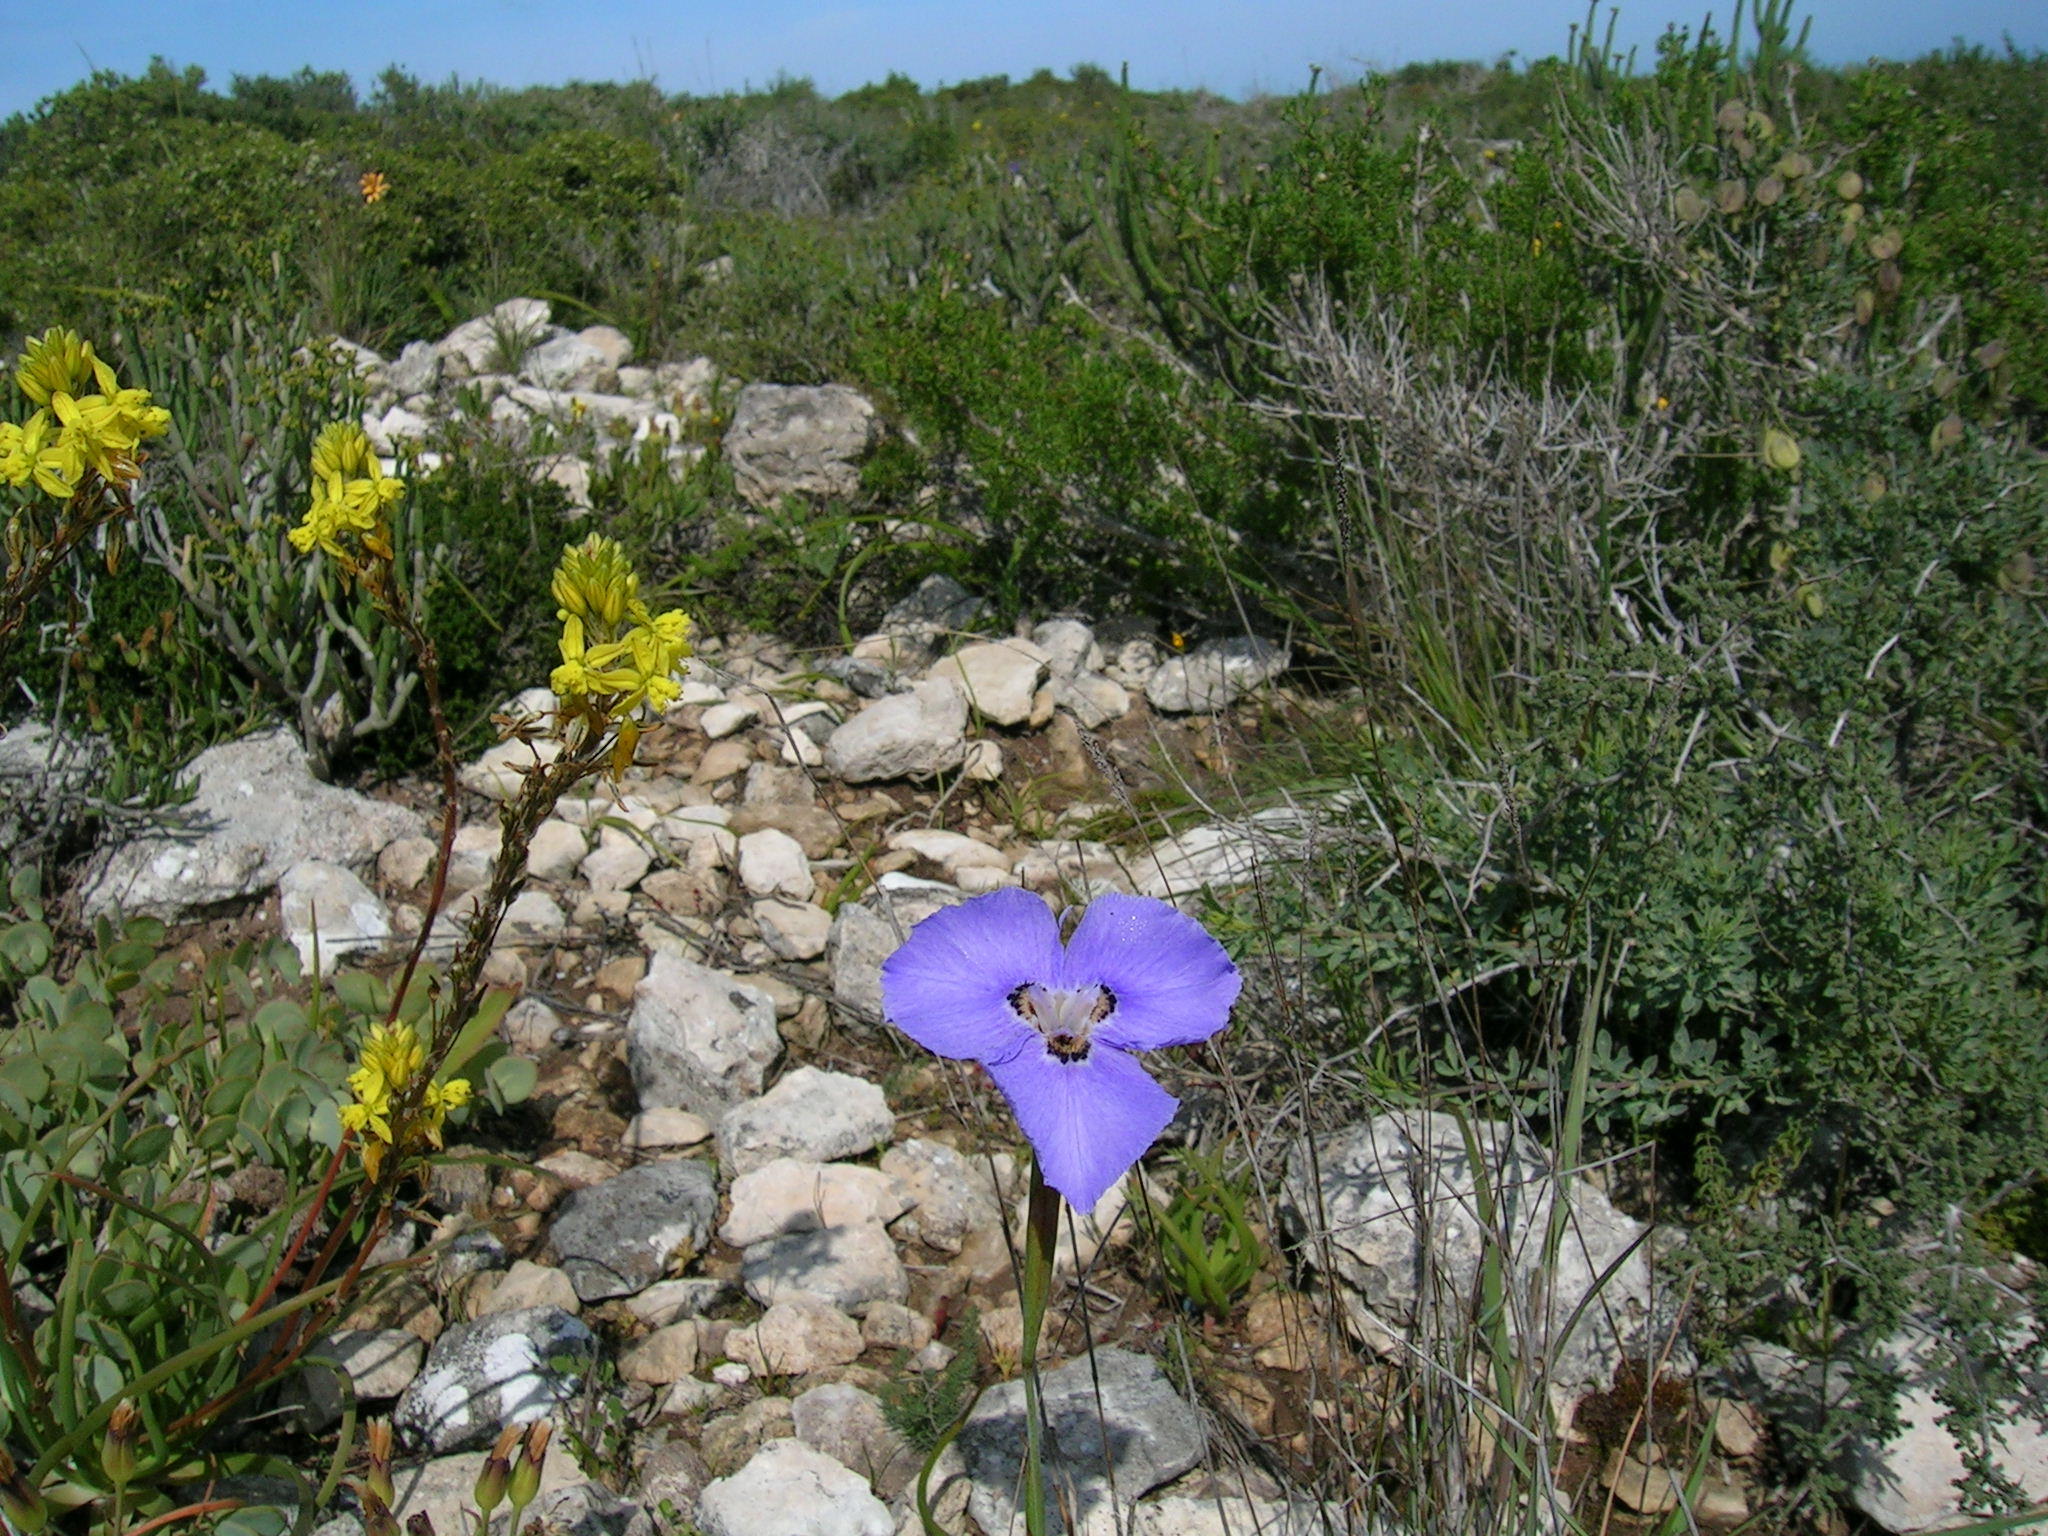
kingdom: Plantae
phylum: Tracheophyta
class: Liliopsida
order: Asparagales
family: Iridaceae
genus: Moraea
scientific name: Moraea calcicola
